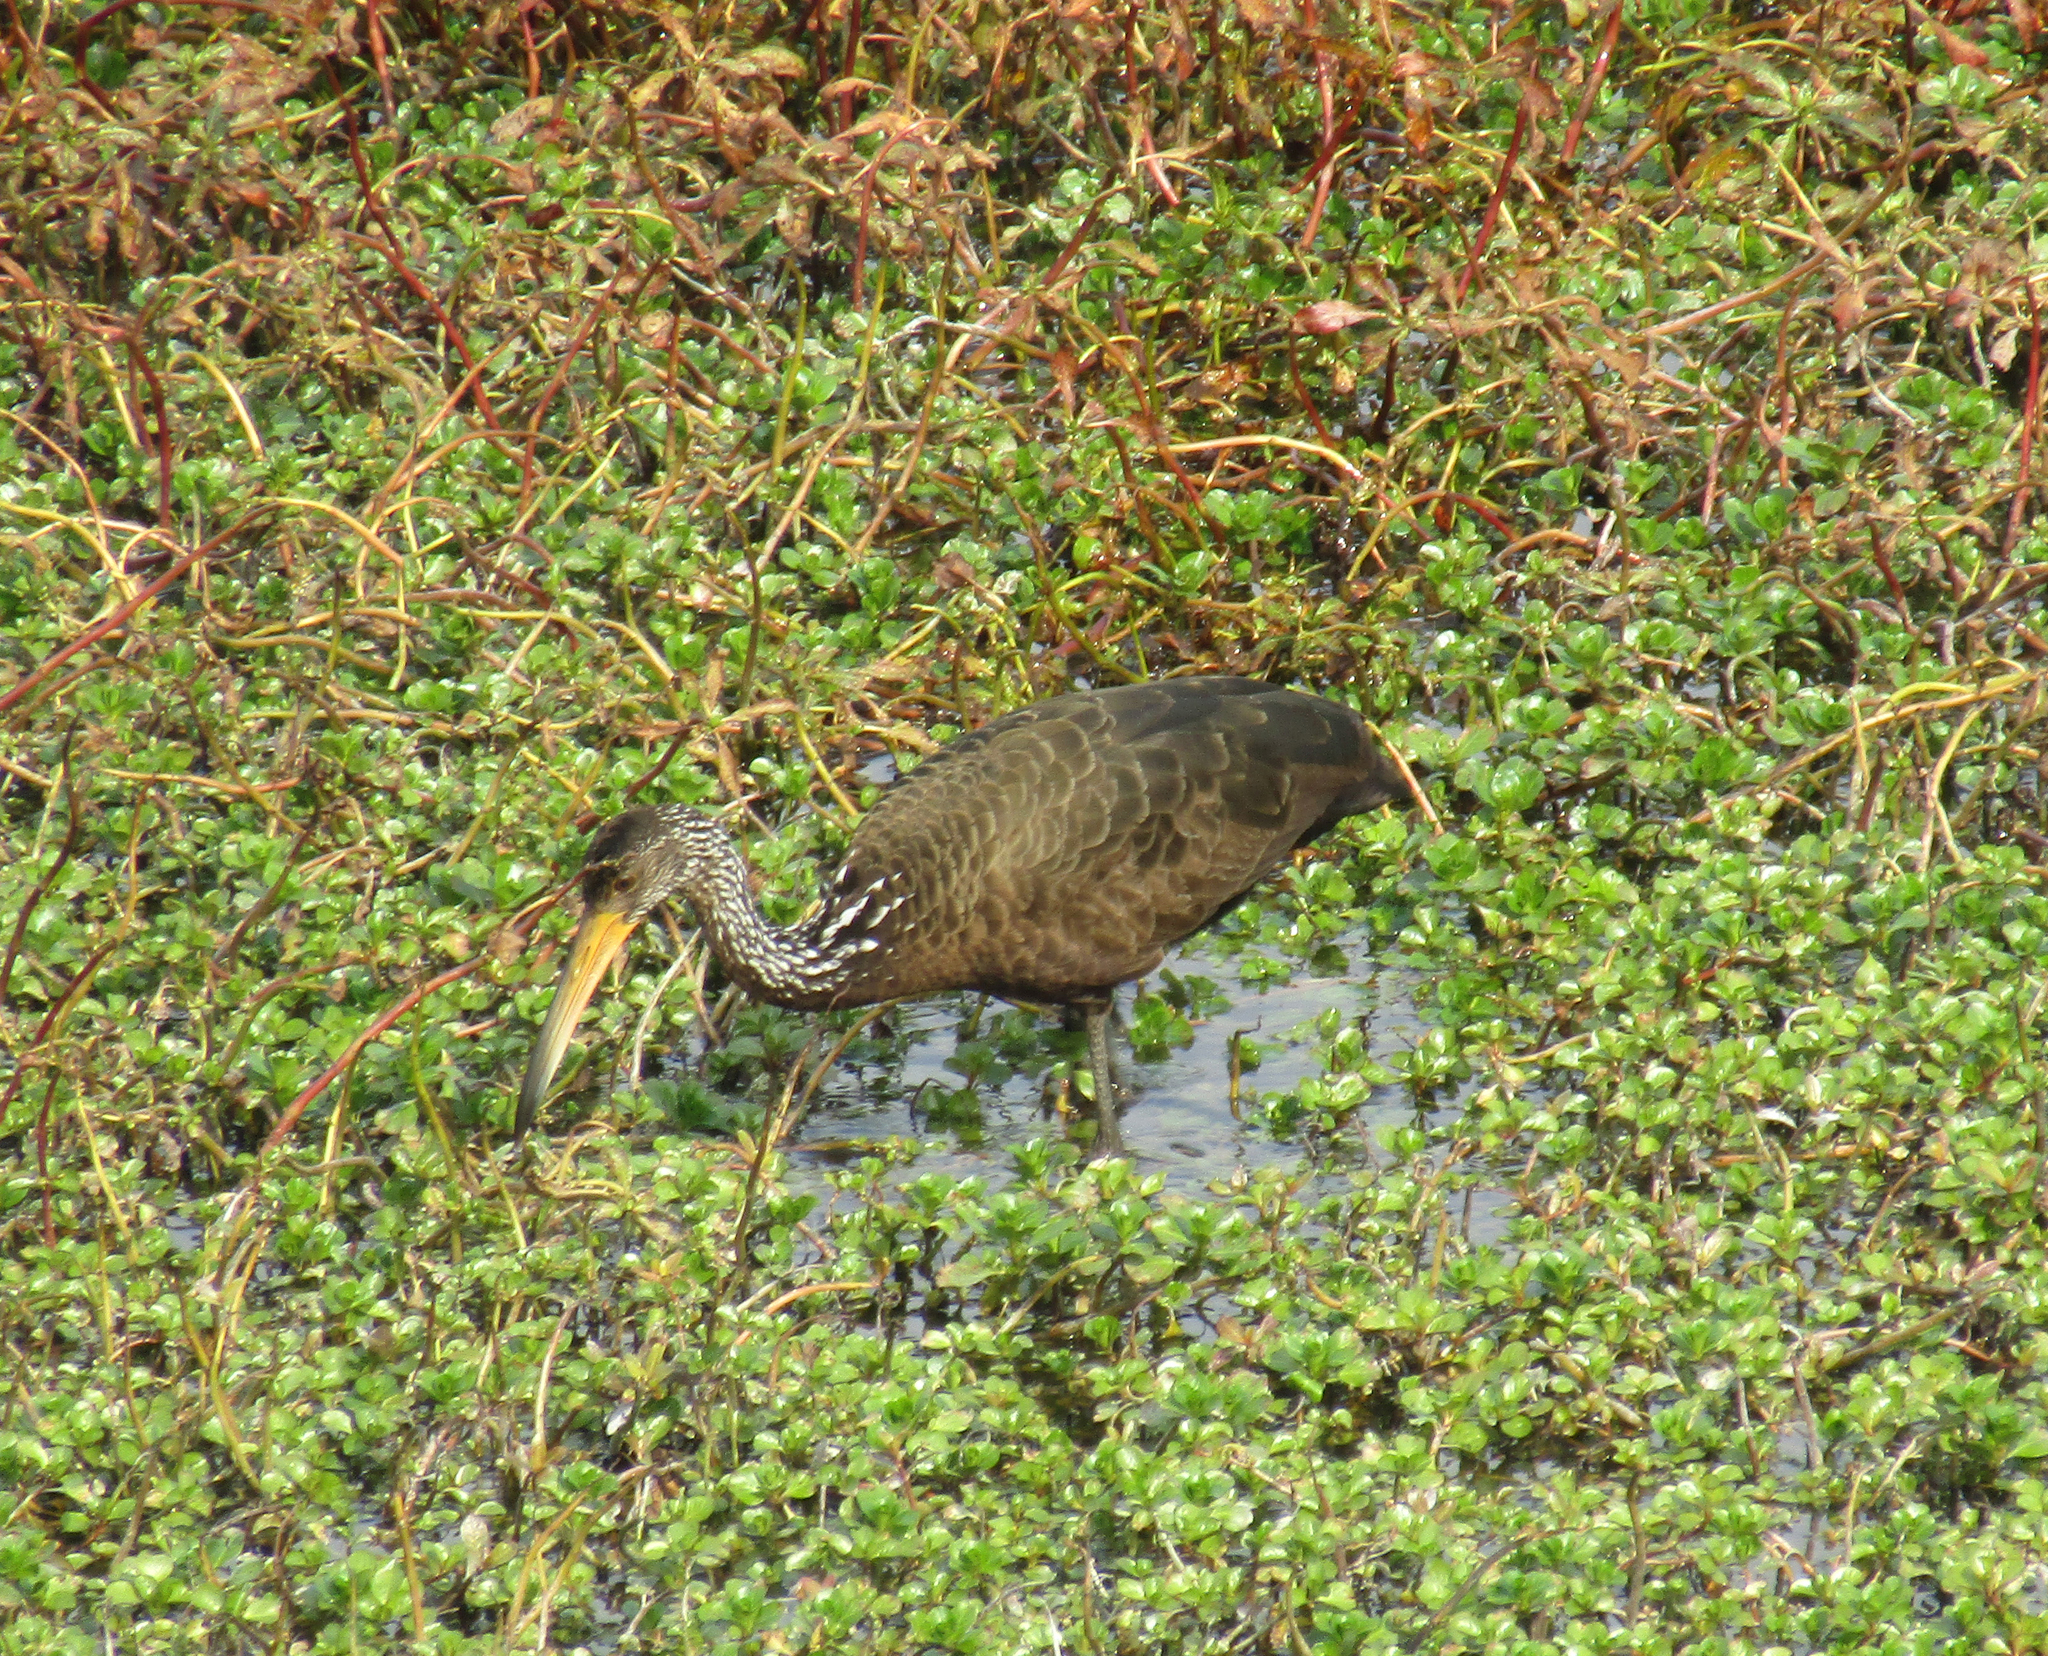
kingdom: Animalia
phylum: Chordata
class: Aves
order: Gruiformes
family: Aramidae
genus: Aramus
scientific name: Aramus guarauna
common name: Limpkin
